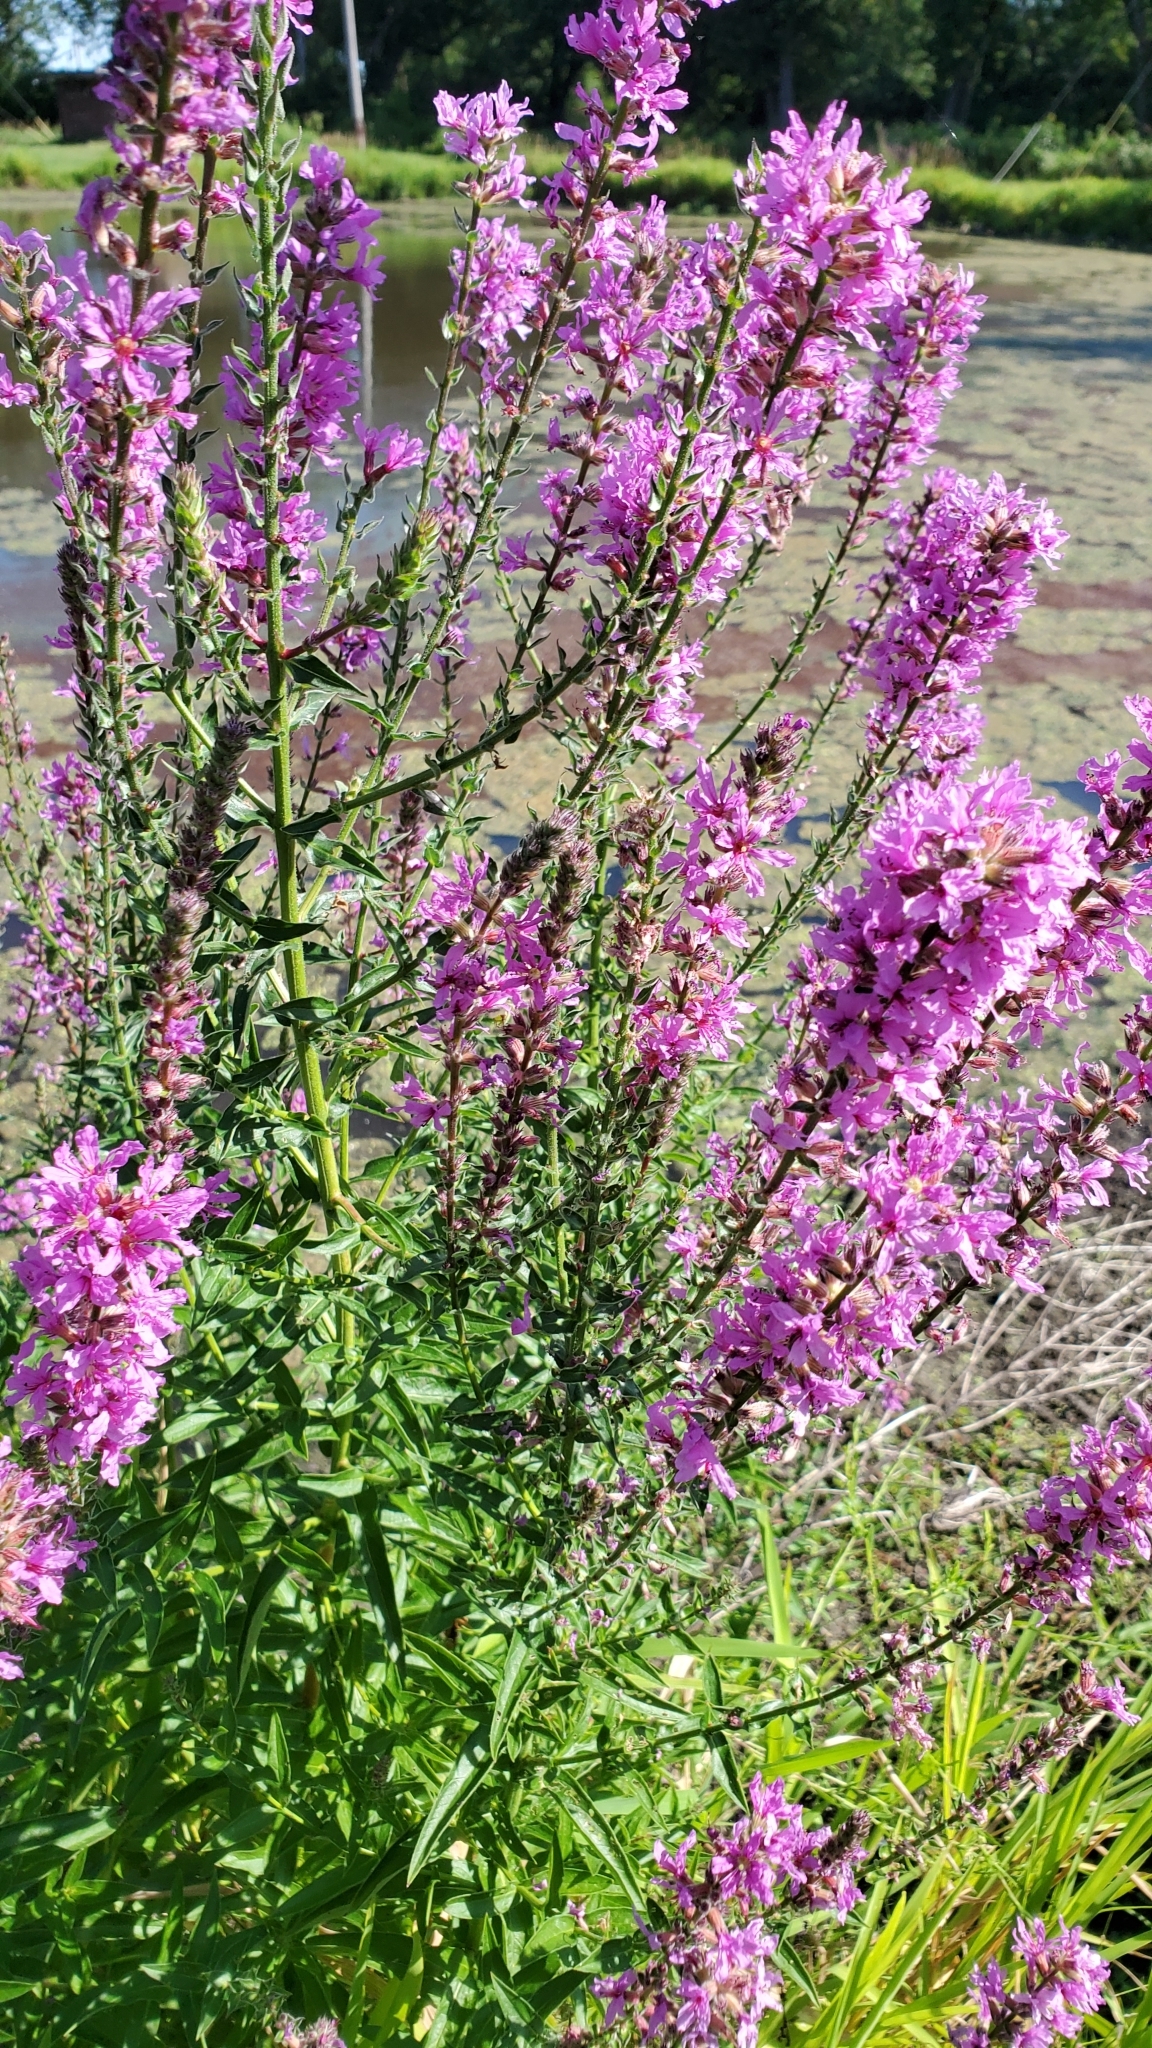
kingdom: Plantae
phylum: Tracheophyta
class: Magnoliopsida
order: Myrtales
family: Lythraceae
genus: Lythrum
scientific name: Lythrum salicaria
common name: Purple loosestrife
